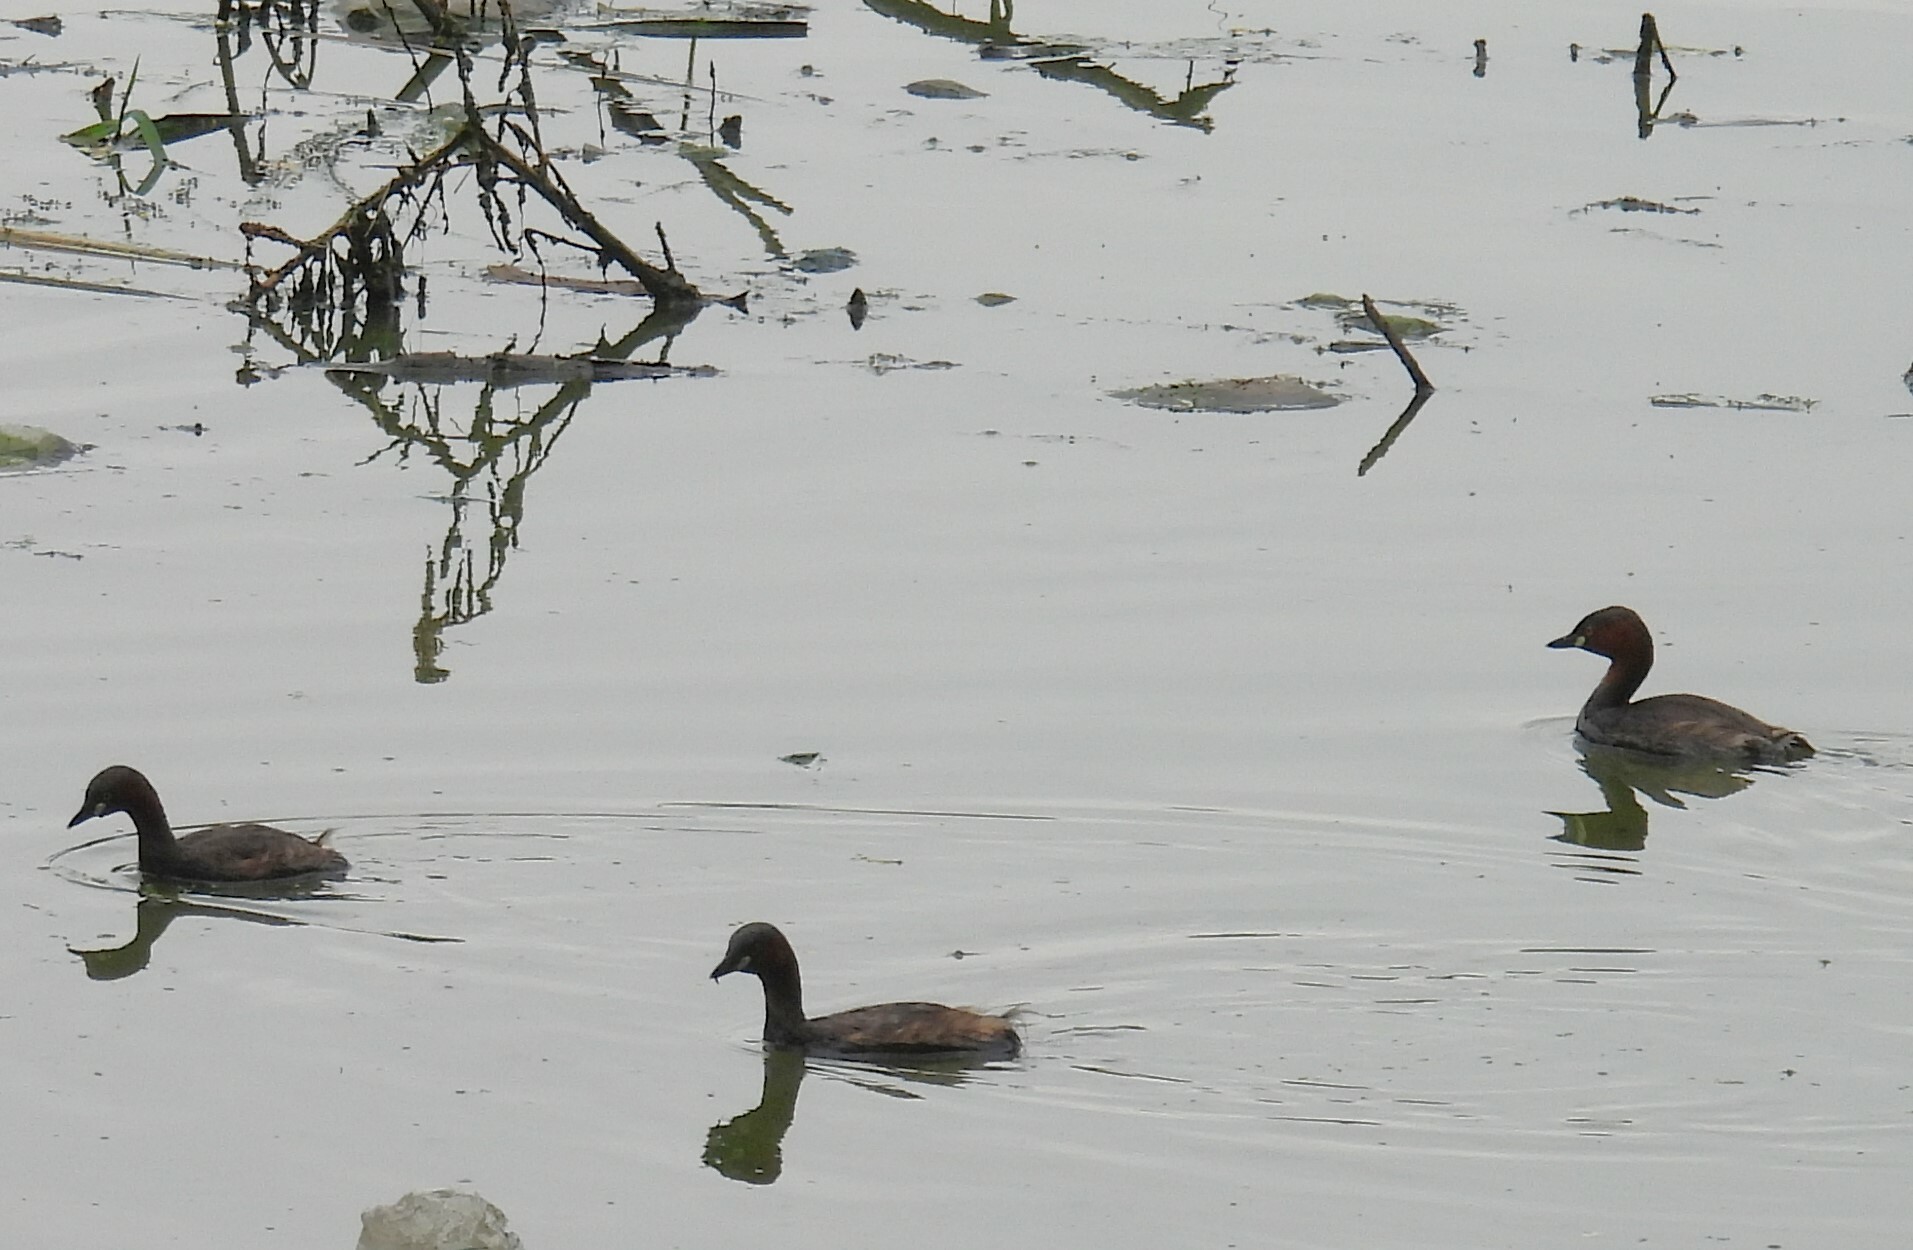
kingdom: Animalia
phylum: Chordata
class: Aves
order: Podicipediformes
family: Podicipedidae
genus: Tachybaptus
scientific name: Tachybaptus ruficollis
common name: Little grebe
